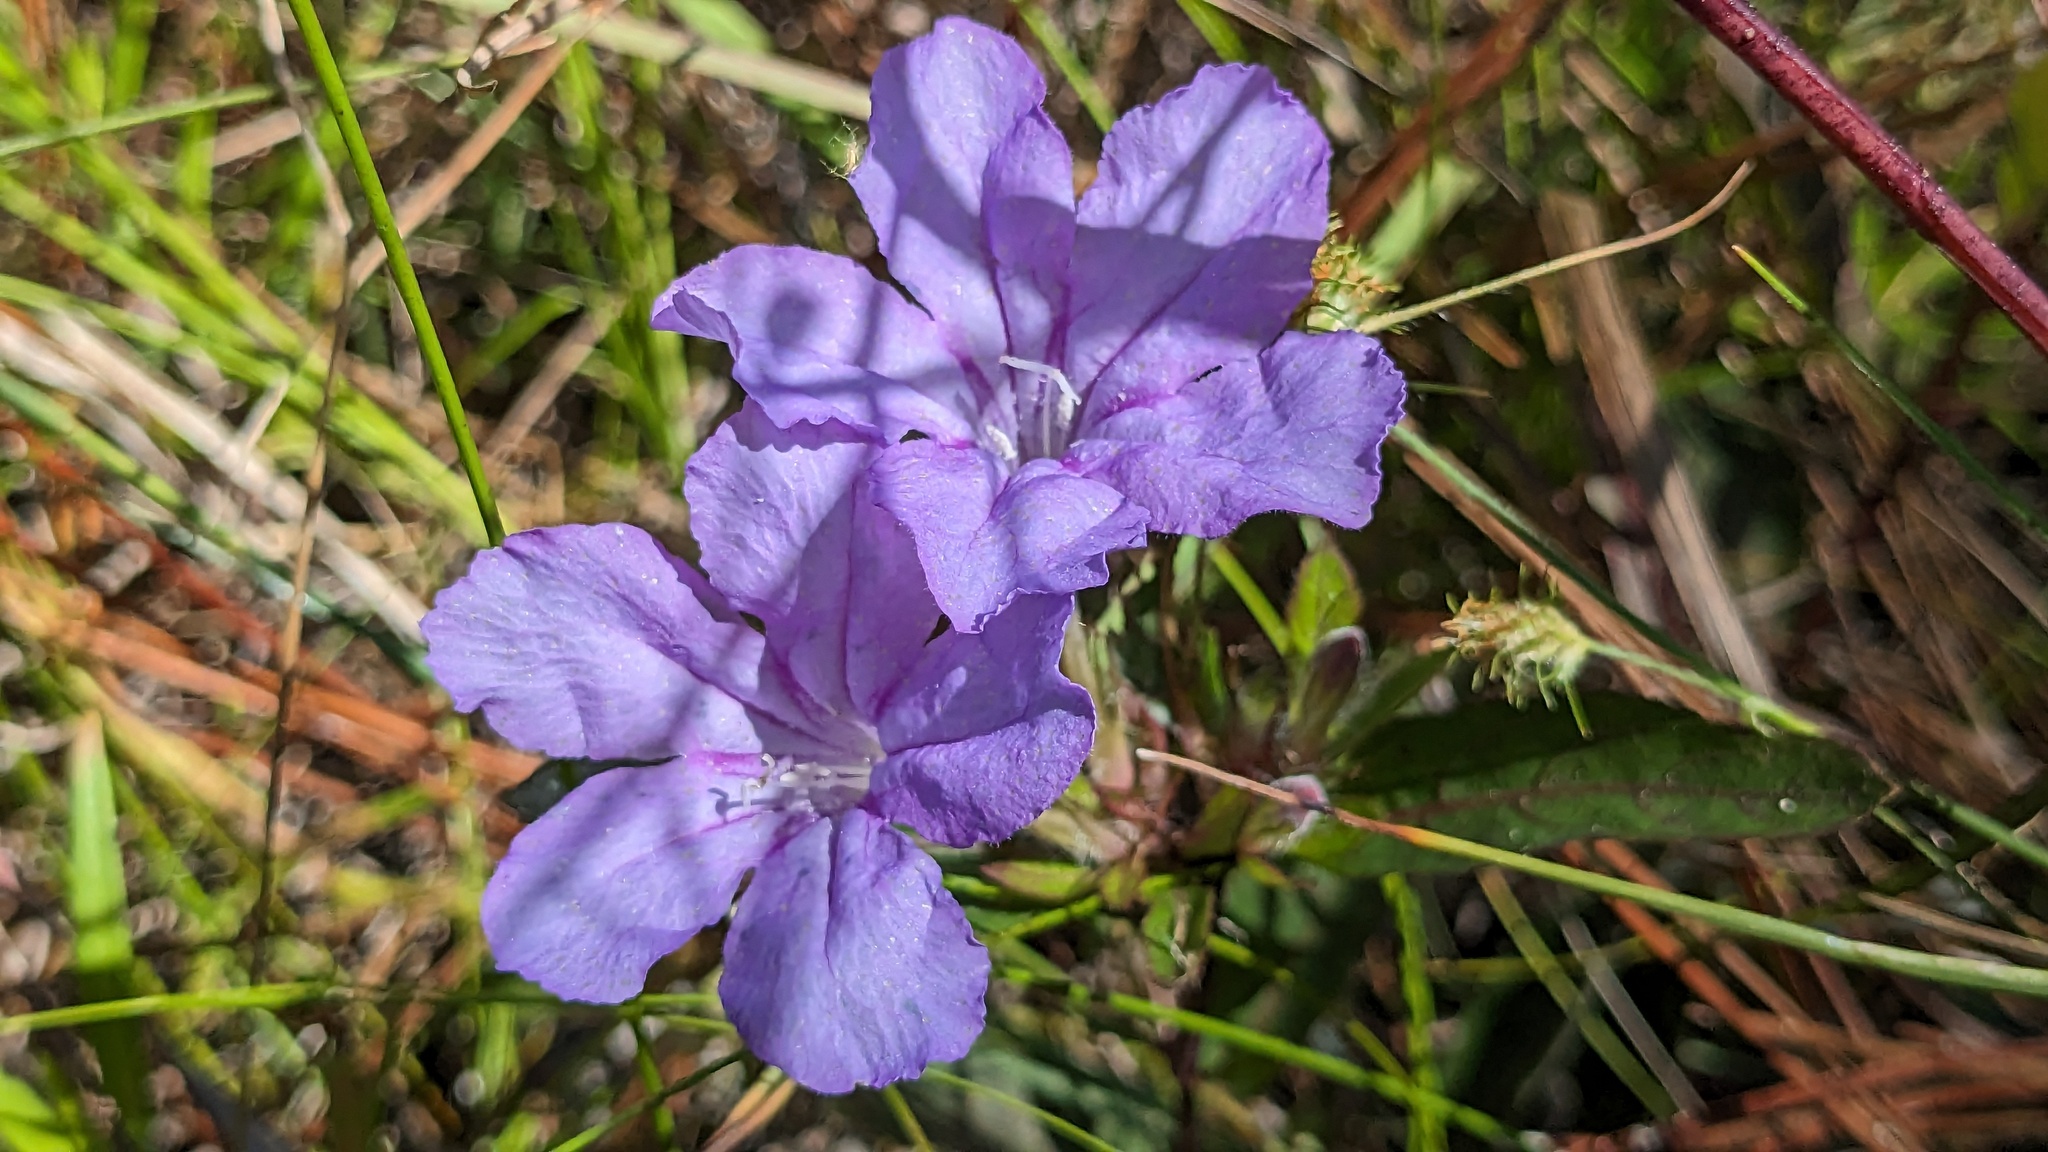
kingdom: Plantae
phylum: Tracheophyta
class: Magnoliopsida
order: Lamiales
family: Acanthaceae
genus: Ruellia
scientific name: Ruellia caroliniensis
